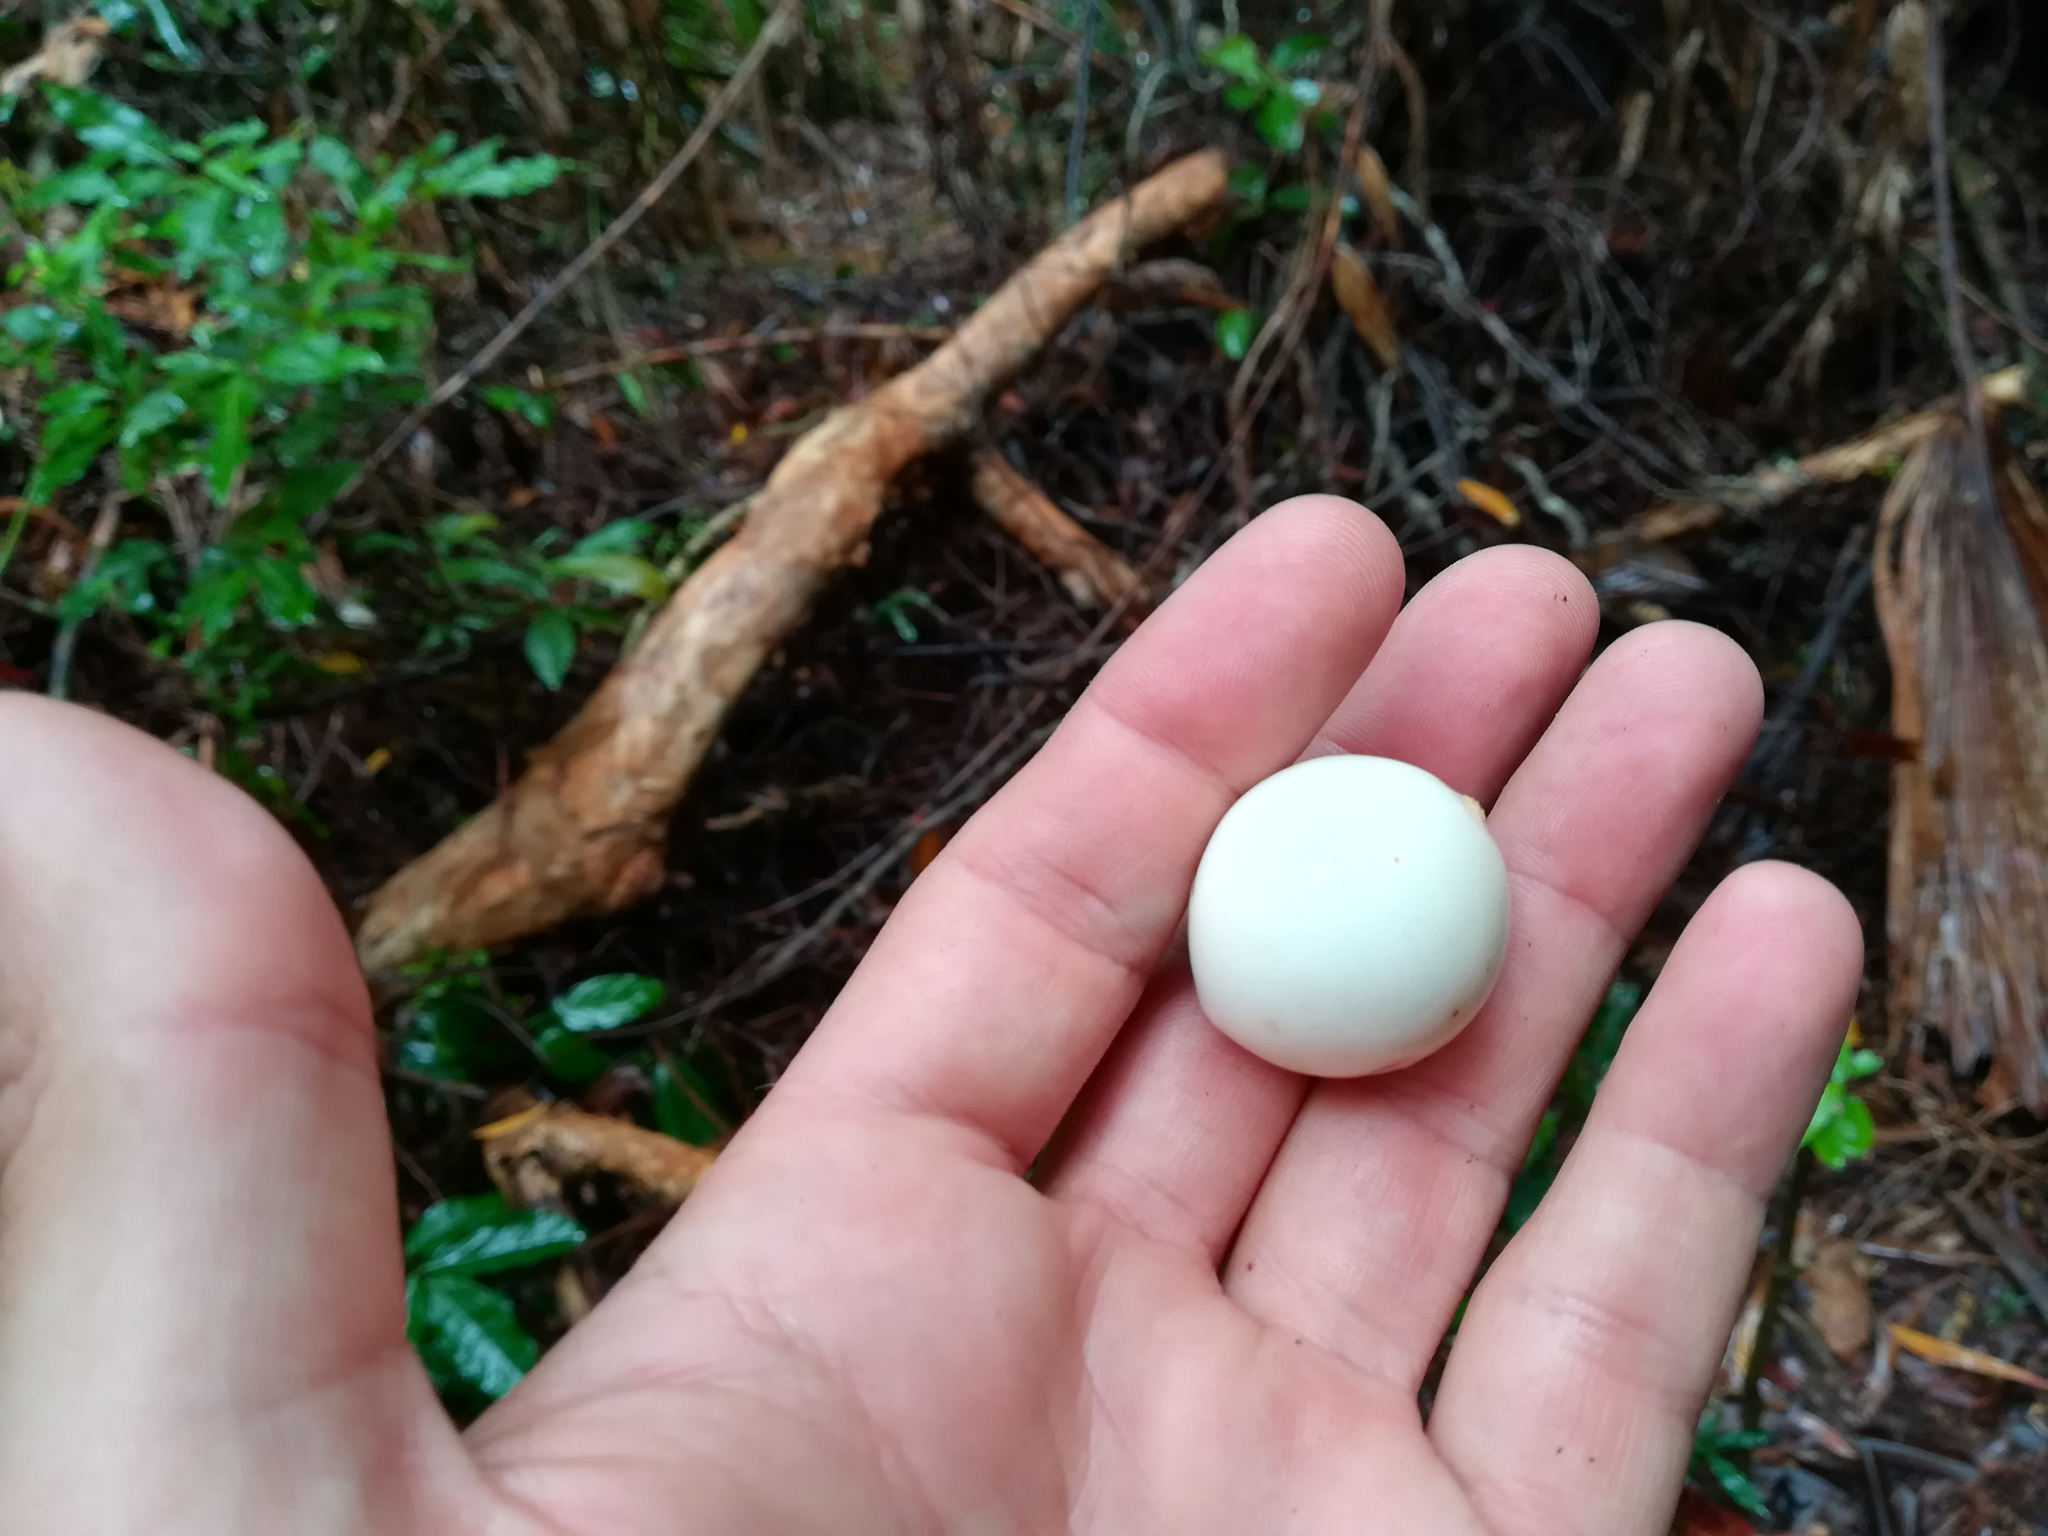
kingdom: Plantae
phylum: Tracheophyta
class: Magnoliopsida
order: Gentianales
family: Gentianaceae
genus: Fagraea
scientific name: Fagraea gracilipes
